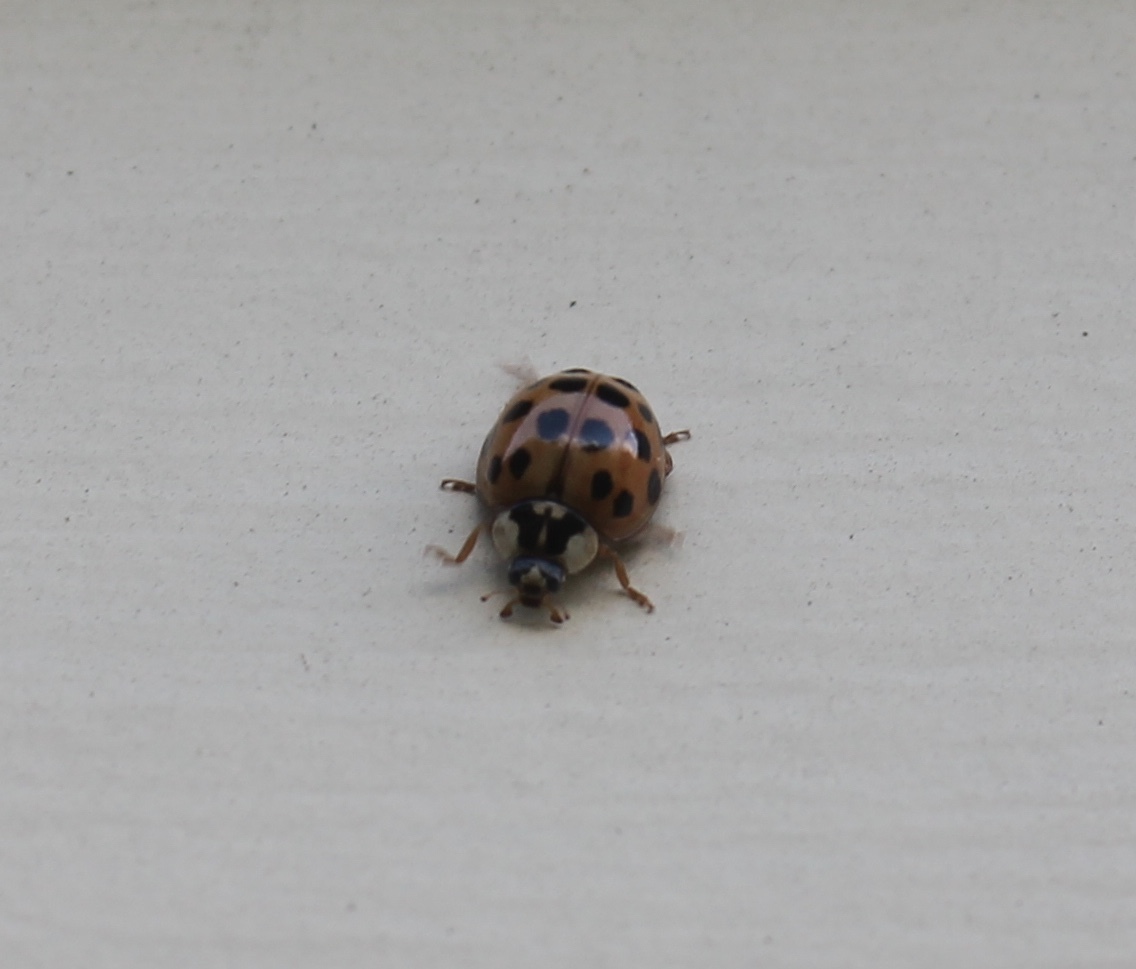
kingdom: Animalia
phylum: Arthropoda
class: Insecta
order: Coleoptera
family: Coccinellidae
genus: Harmonia
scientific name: Harmonia axyridis
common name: Harlequin ladybird
